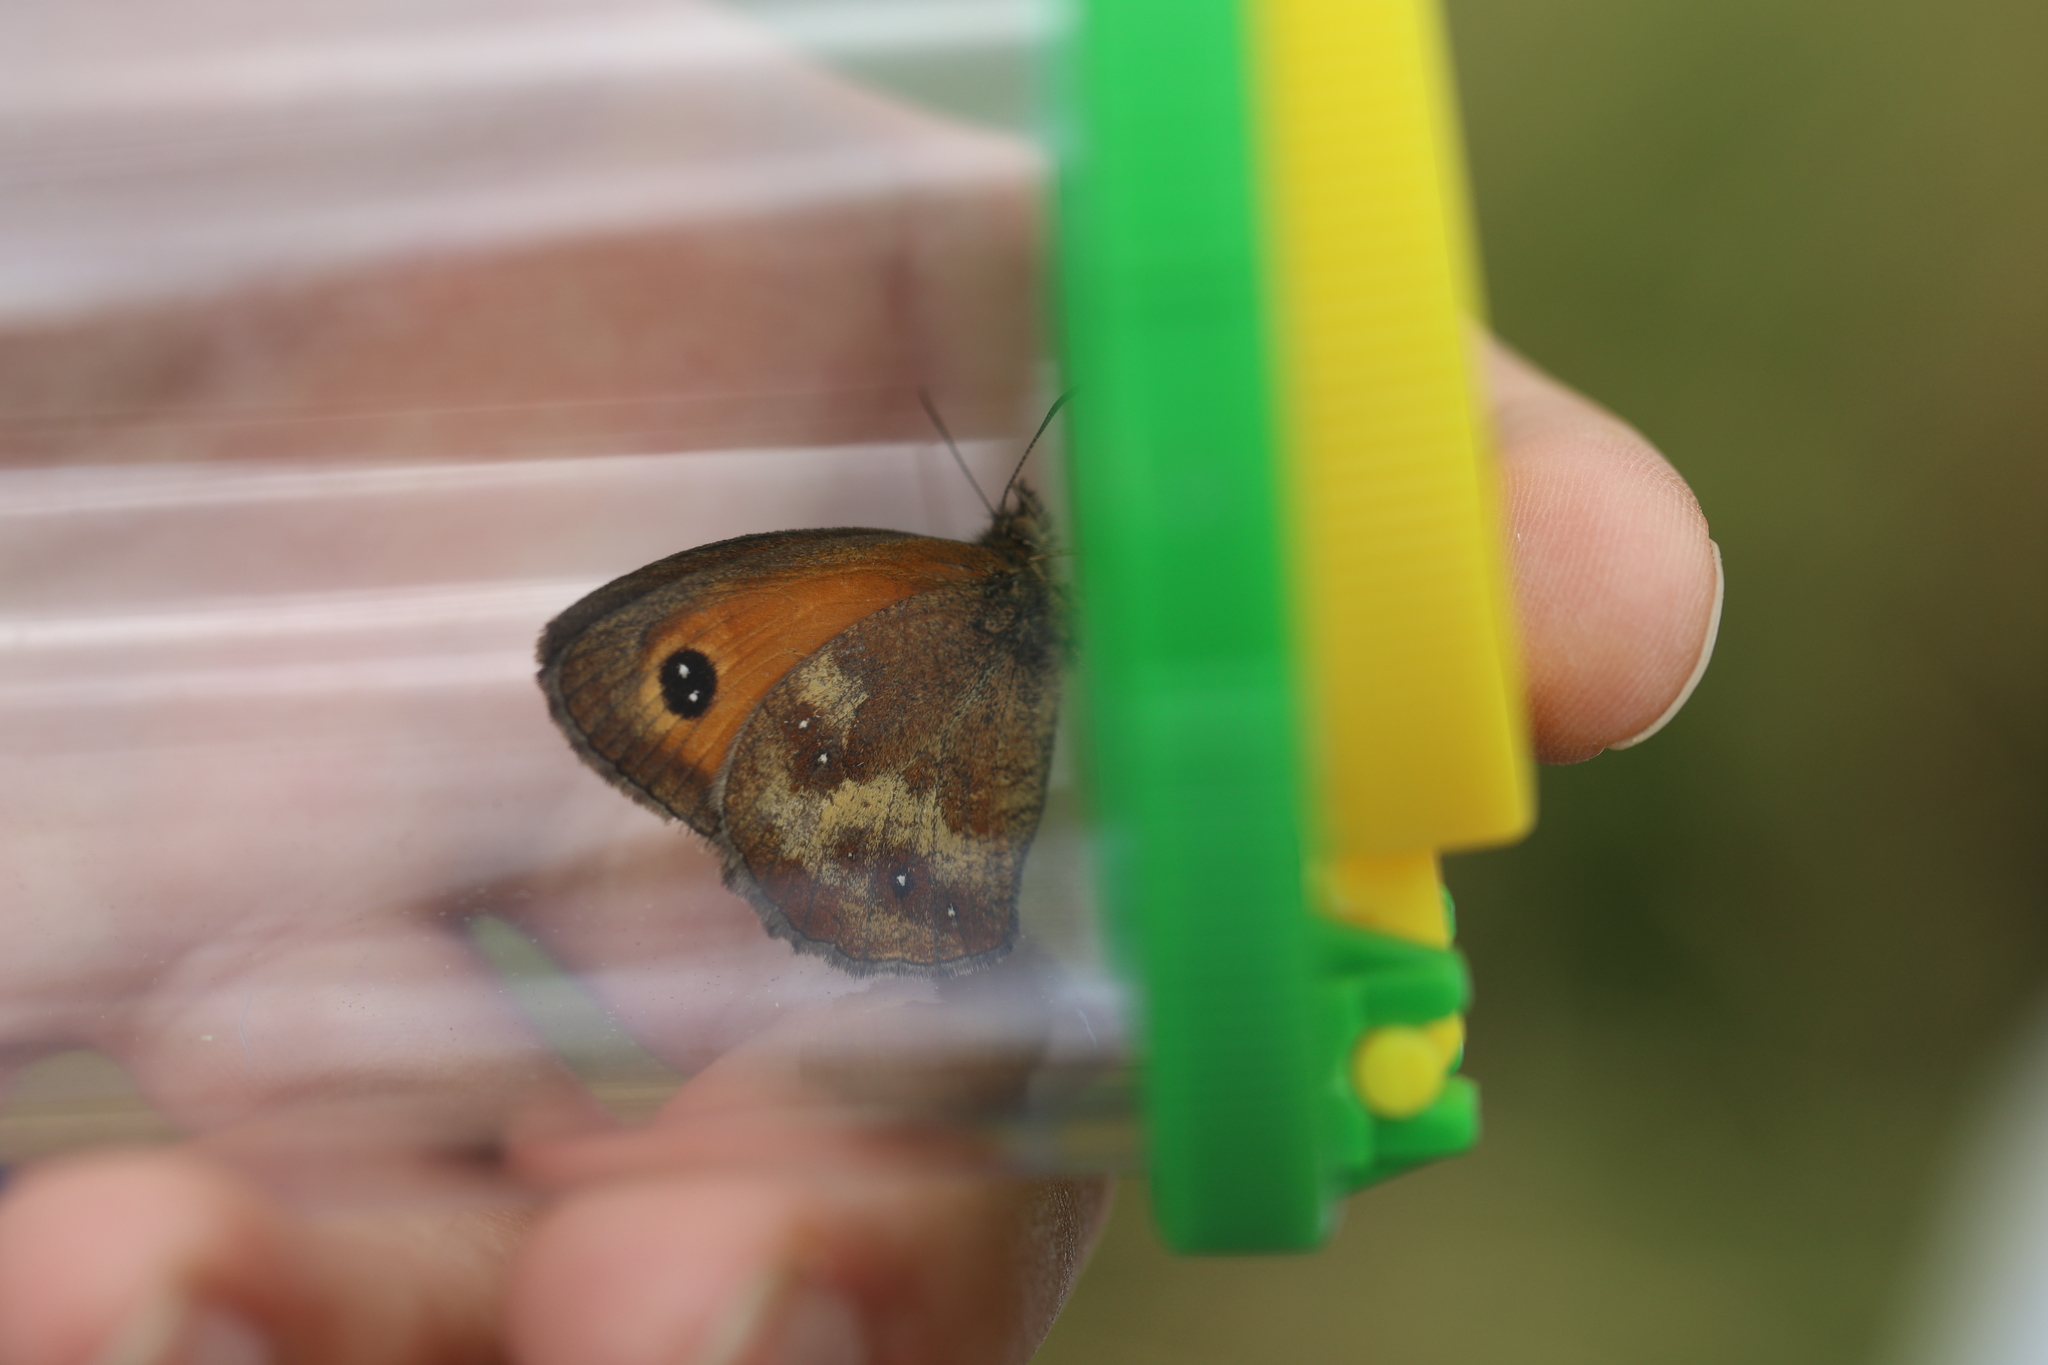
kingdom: Animalia
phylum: Arthropoda
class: Insecta
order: Lepidoptera
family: Nymphalidae
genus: Pyronia
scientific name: Pyronia tithonus
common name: Gatekeeper
